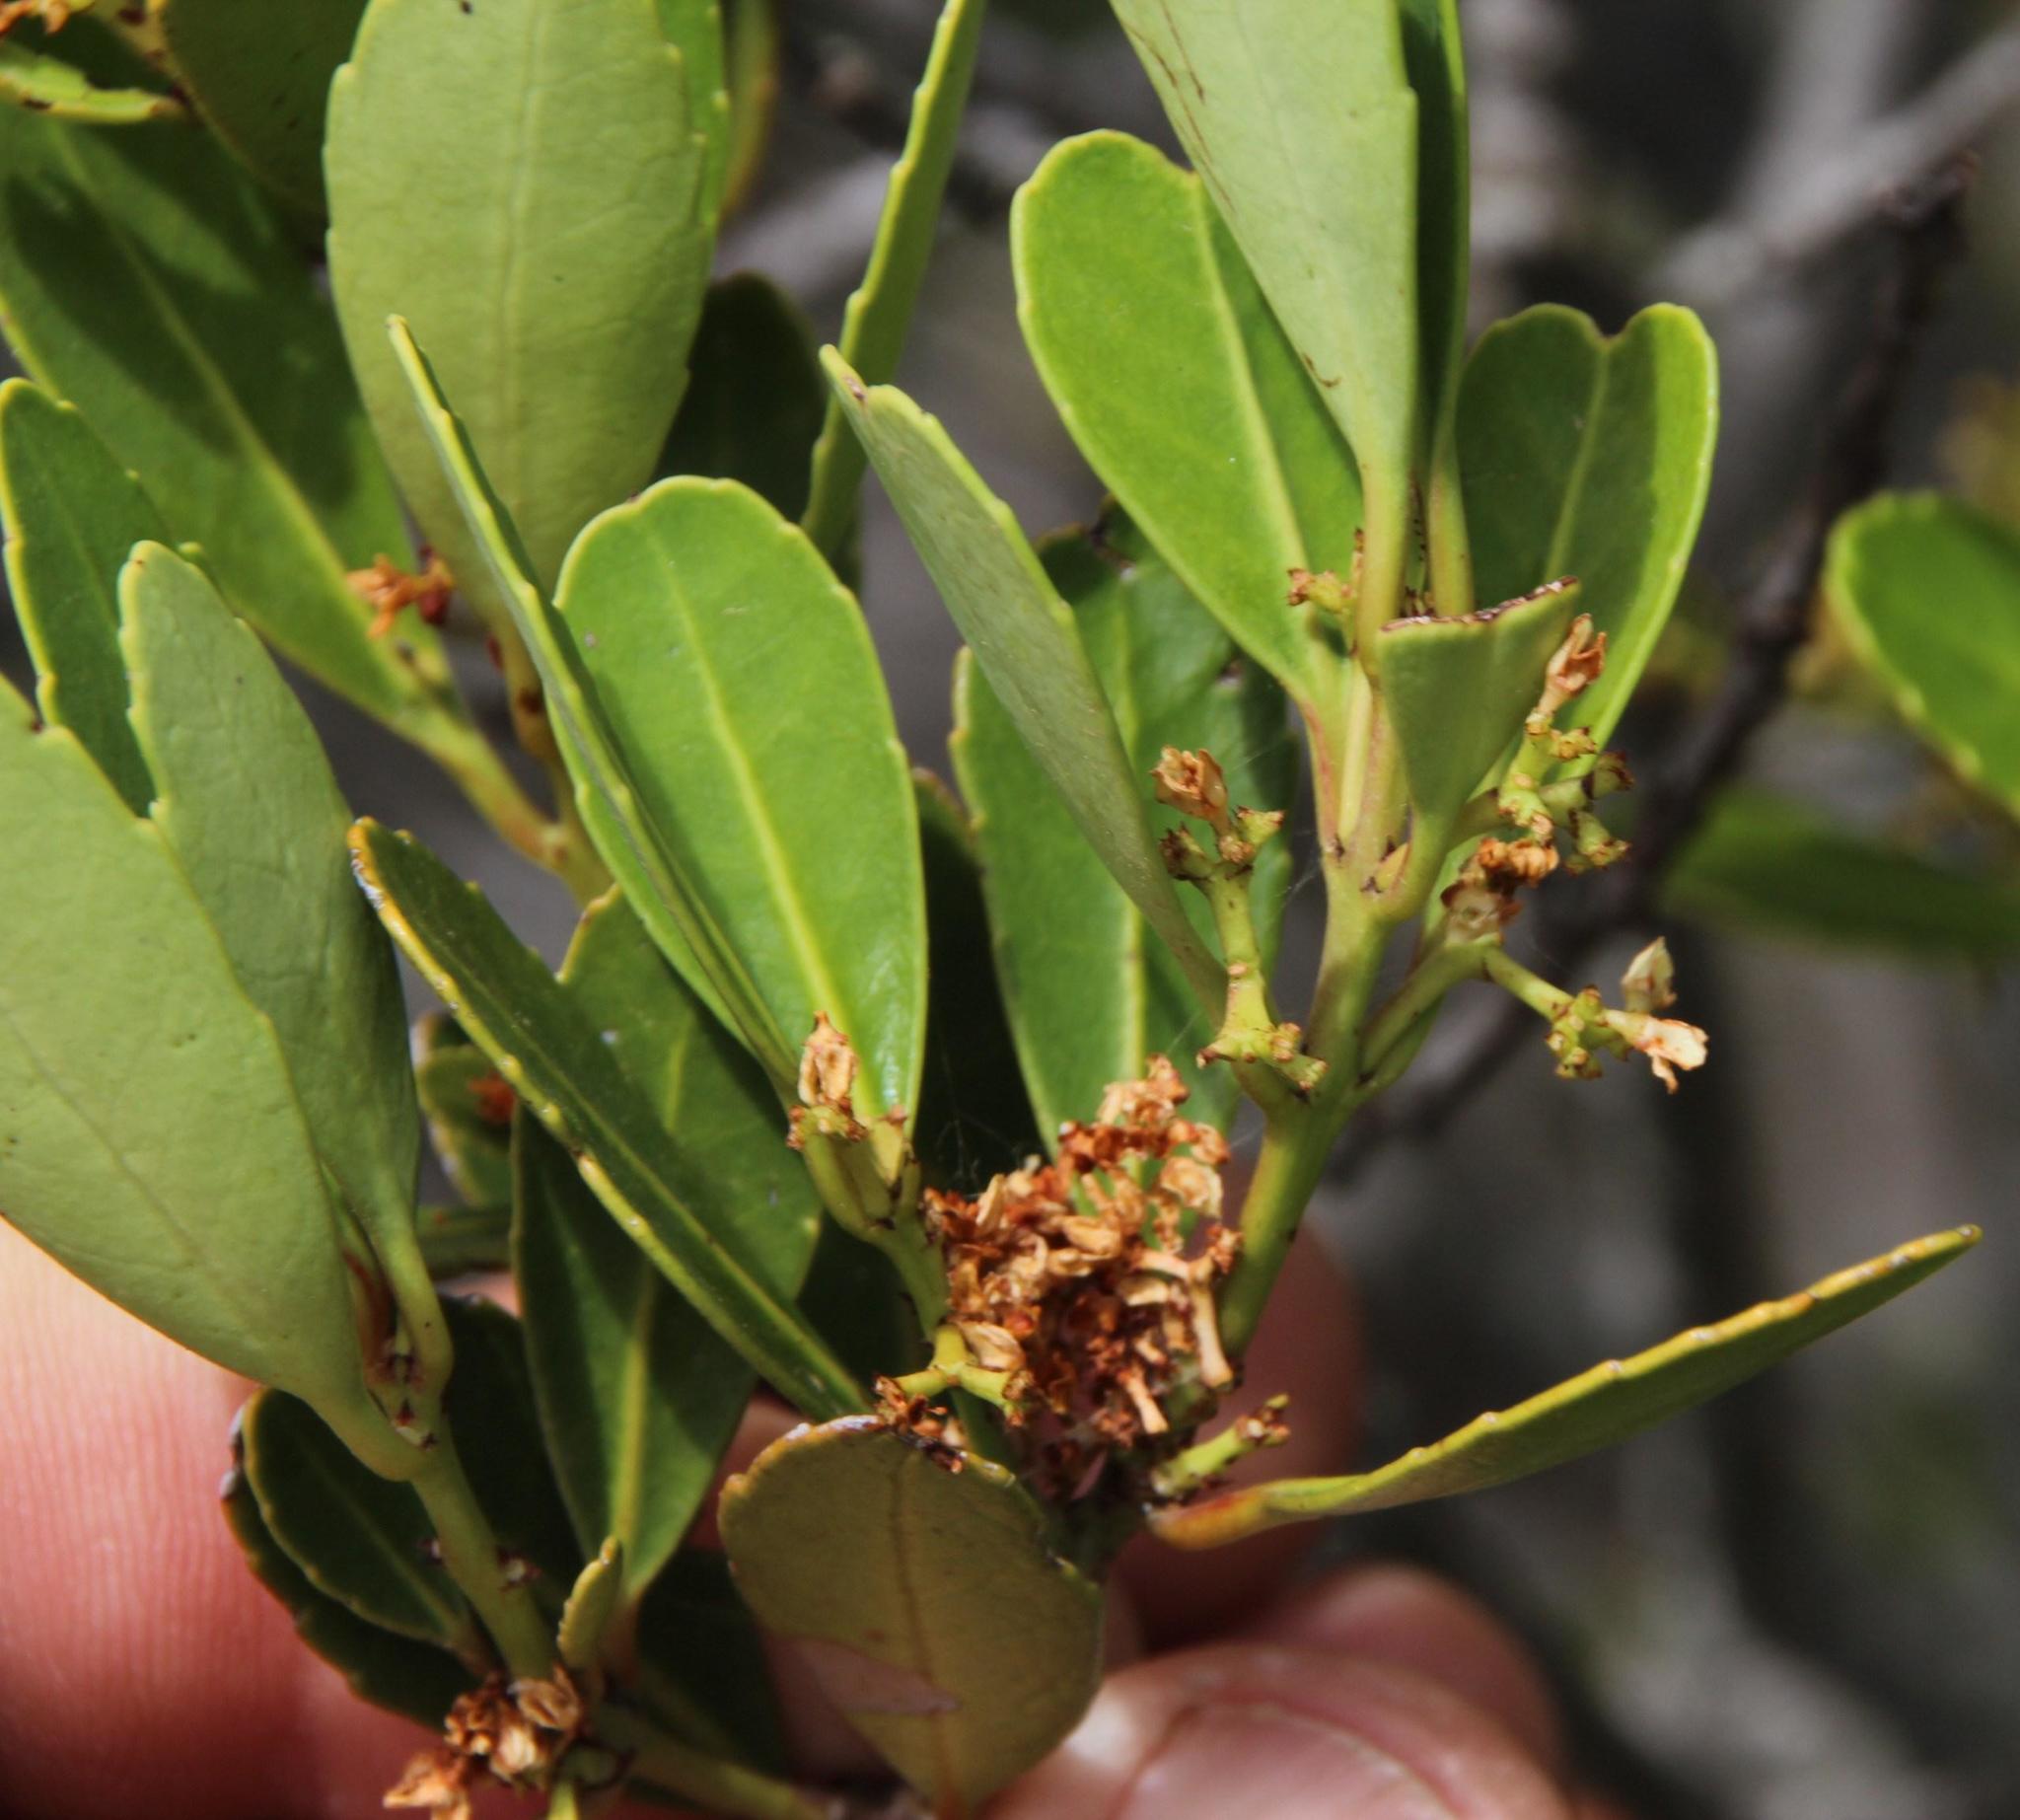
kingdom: Plantae
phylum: Tracheophyta
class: Magnoliopsida
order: Celastrales
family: Celastraceae
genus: Elaeodendron
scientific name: Elaeodendron schinoides
